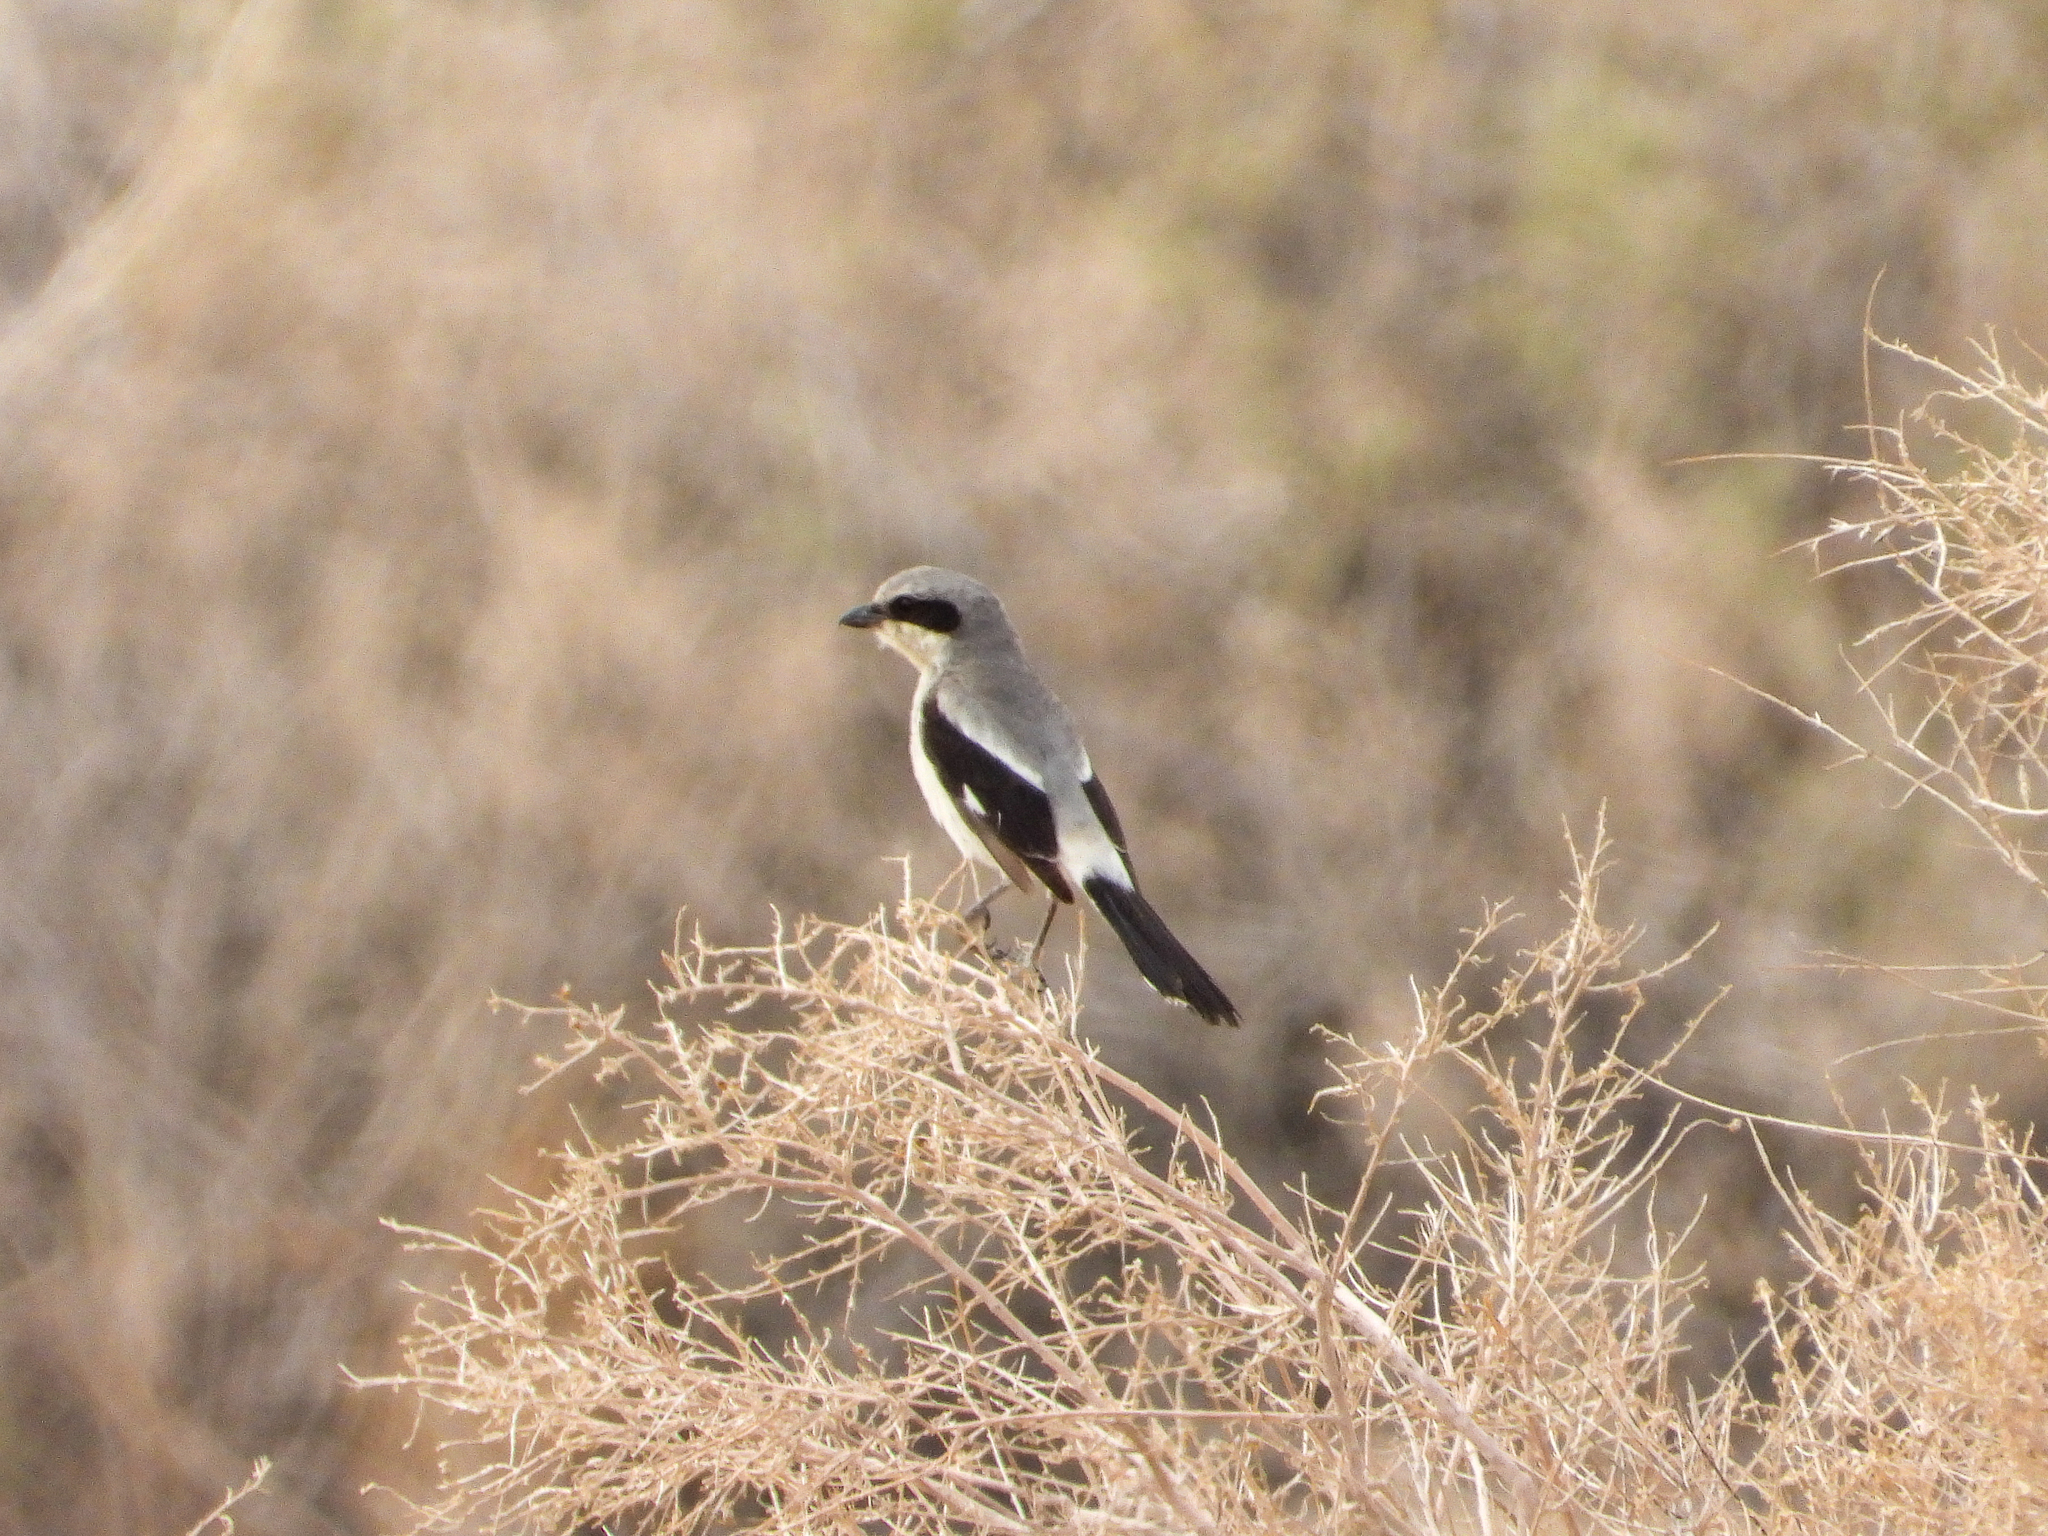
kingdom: Animalia
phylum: Chordata
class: Aves
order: Passeriformes
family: Laniidae
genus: Lanius
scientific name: Lanius ludovicianus
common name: Loggerhead shrike
